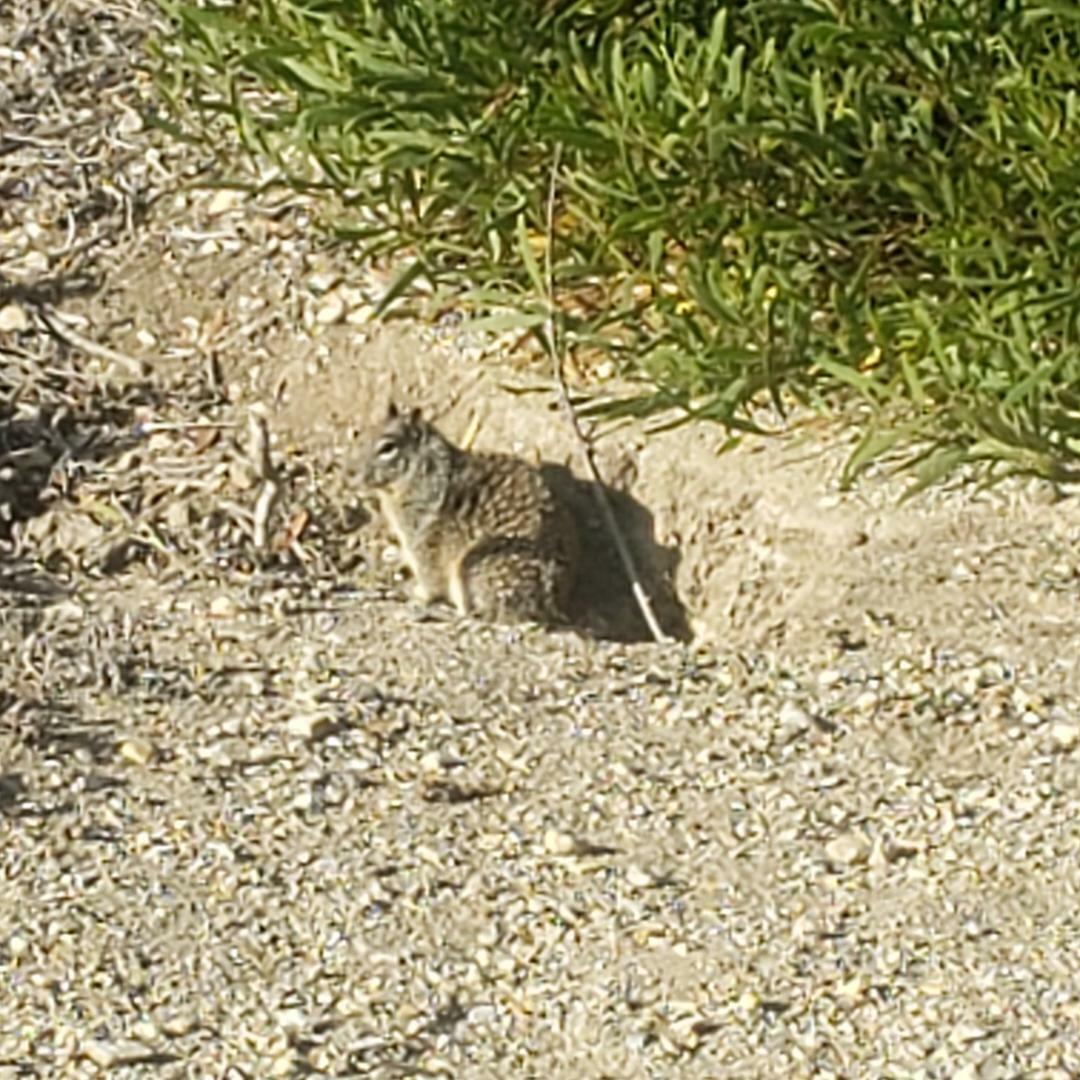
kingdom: Animalia
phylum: Chordata
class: Mammalia
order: Rodentia
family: Sciuridae
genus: Otospermophilus
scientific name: Otospermophilus beecheyi
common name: California ground squirrel
